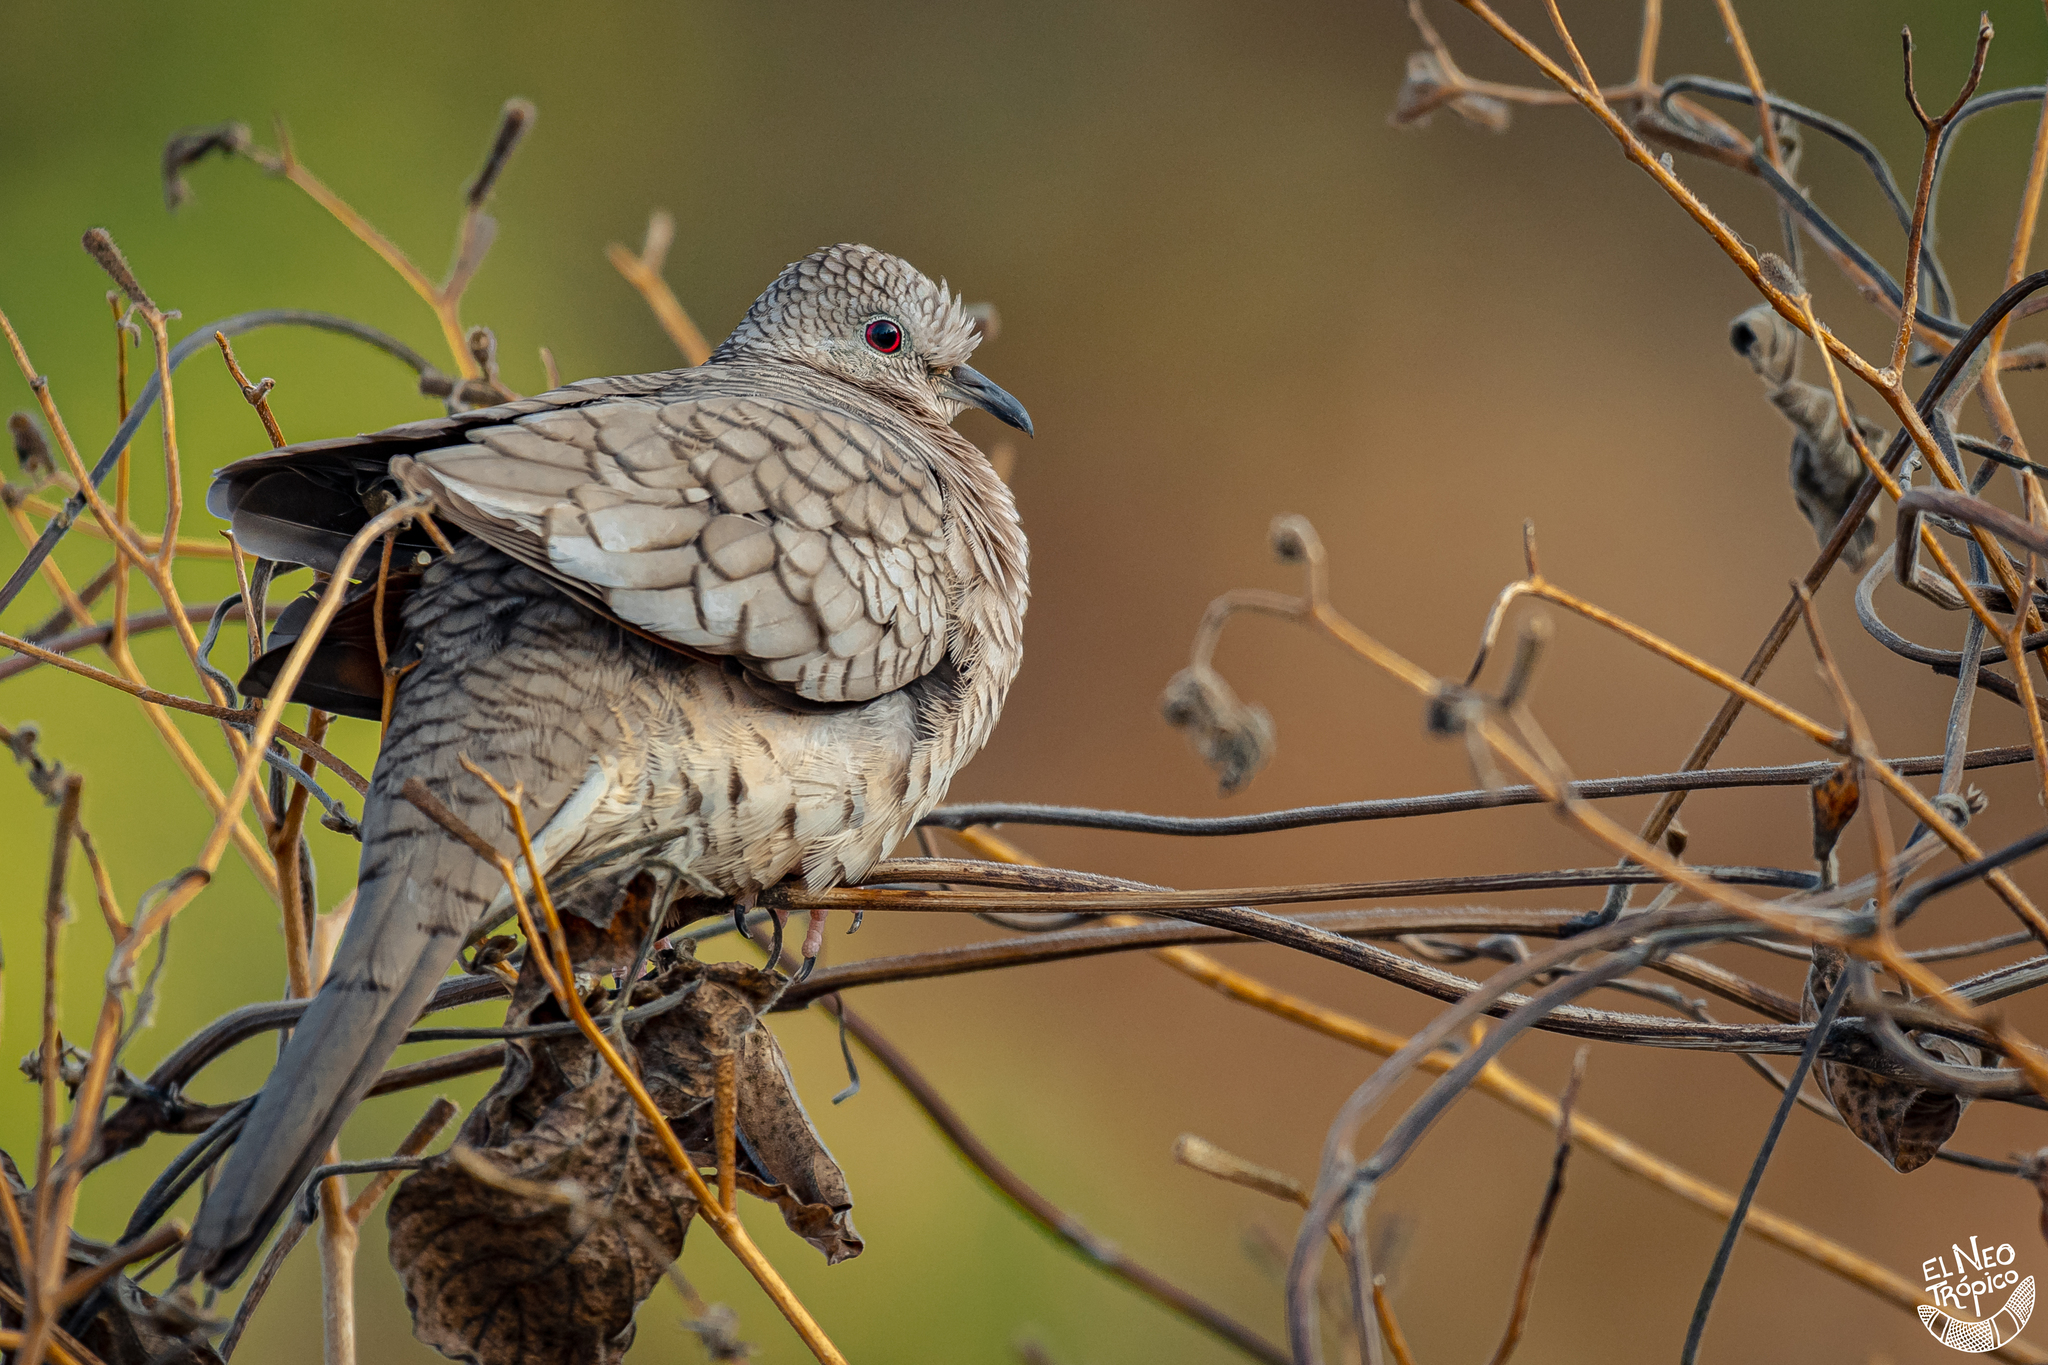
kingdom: Animalia
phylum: Chordata
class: Aves
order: Columbiformes
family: Columbidae
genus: Columbina
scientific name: Columbina inca
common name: Inca dove
